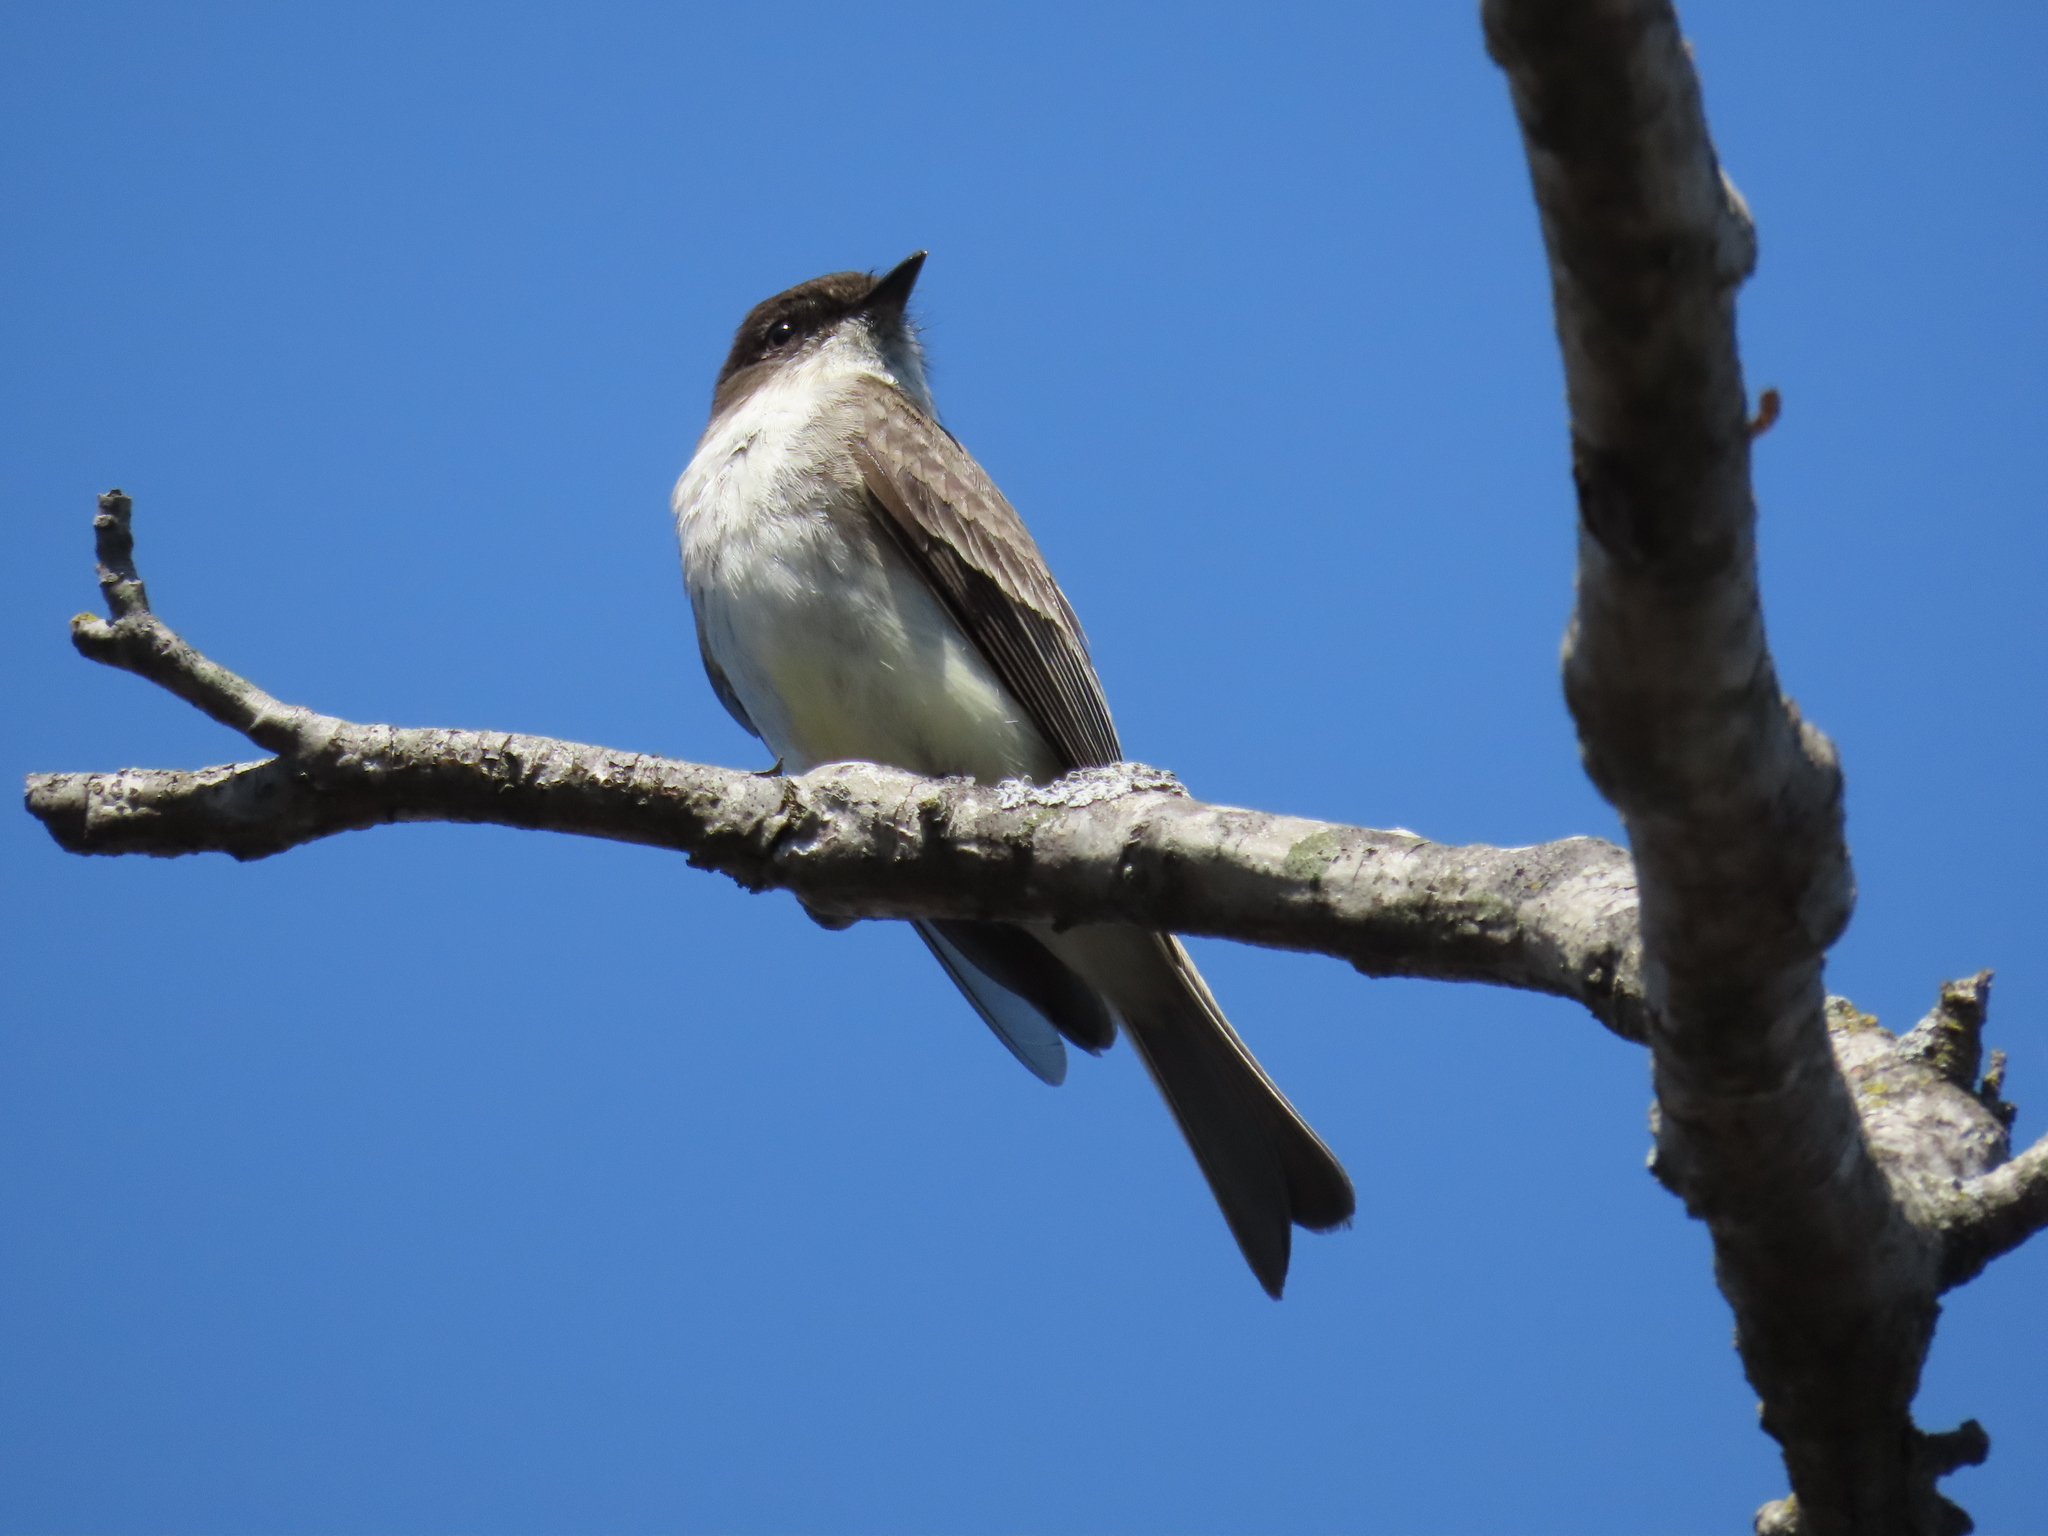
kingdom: Animalia
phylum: Chordata
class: Aves
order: Passeriformes
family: Tyrannidae
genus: Sayornis
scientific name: Sayornis phoebe
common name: Eastern phoebe
